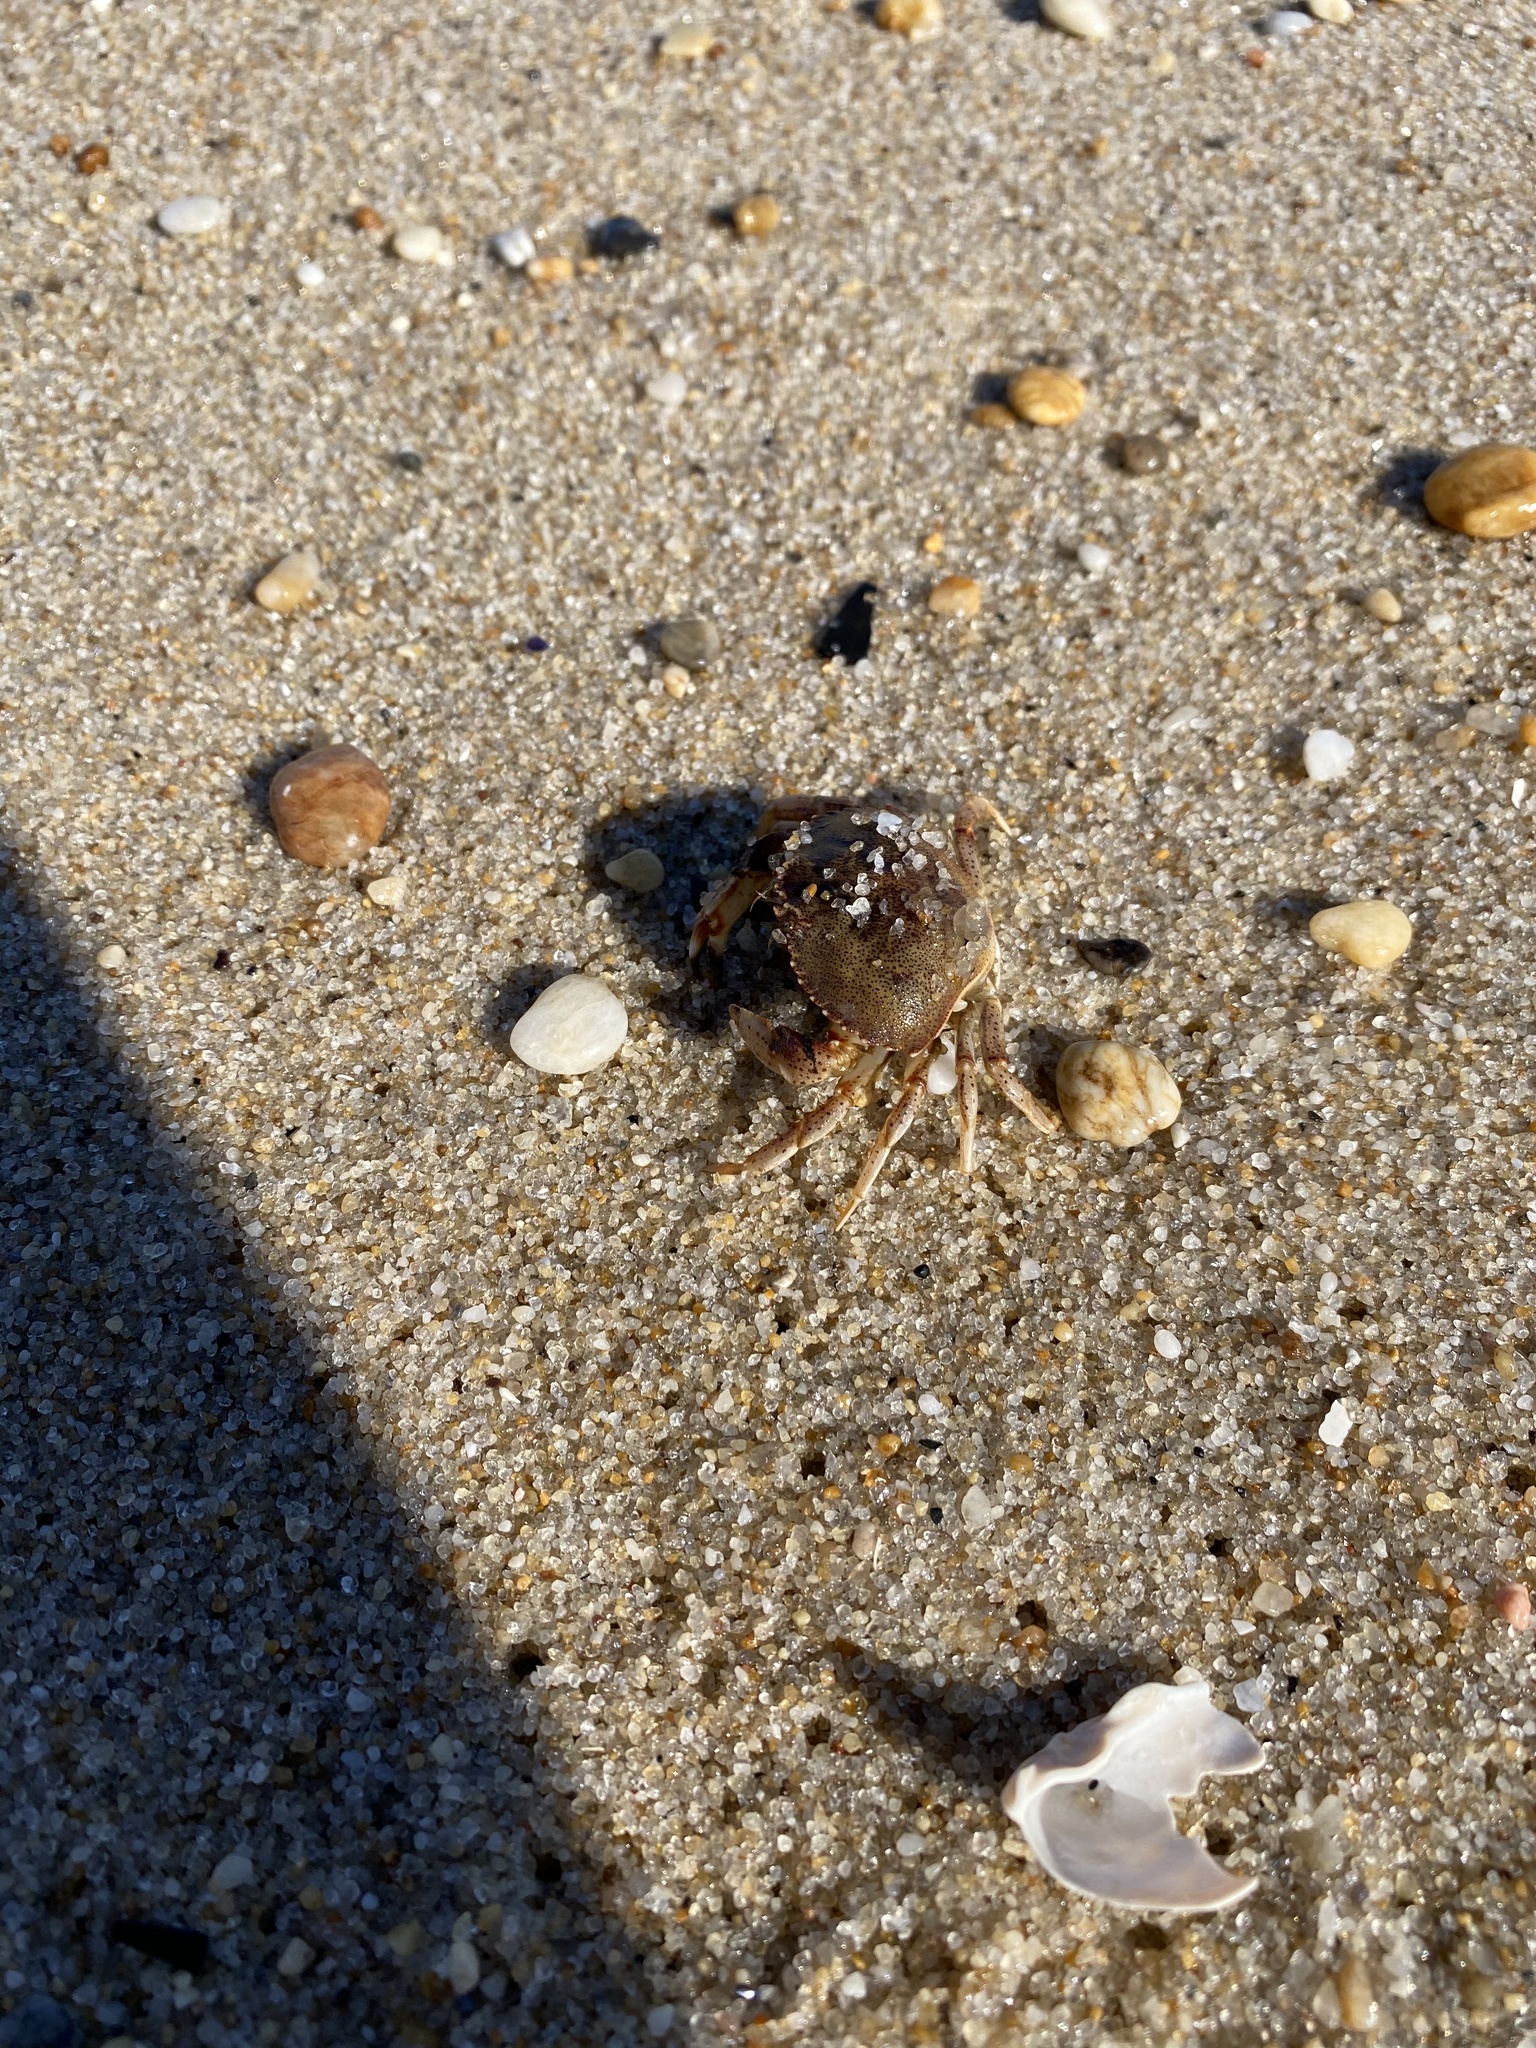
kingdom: Animalia
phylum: Arthropoda
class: Malacostraca
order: Decapoda
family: Cancridae
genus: Cancer
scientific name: Cancer irroratus
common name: Atlantic rock crab
